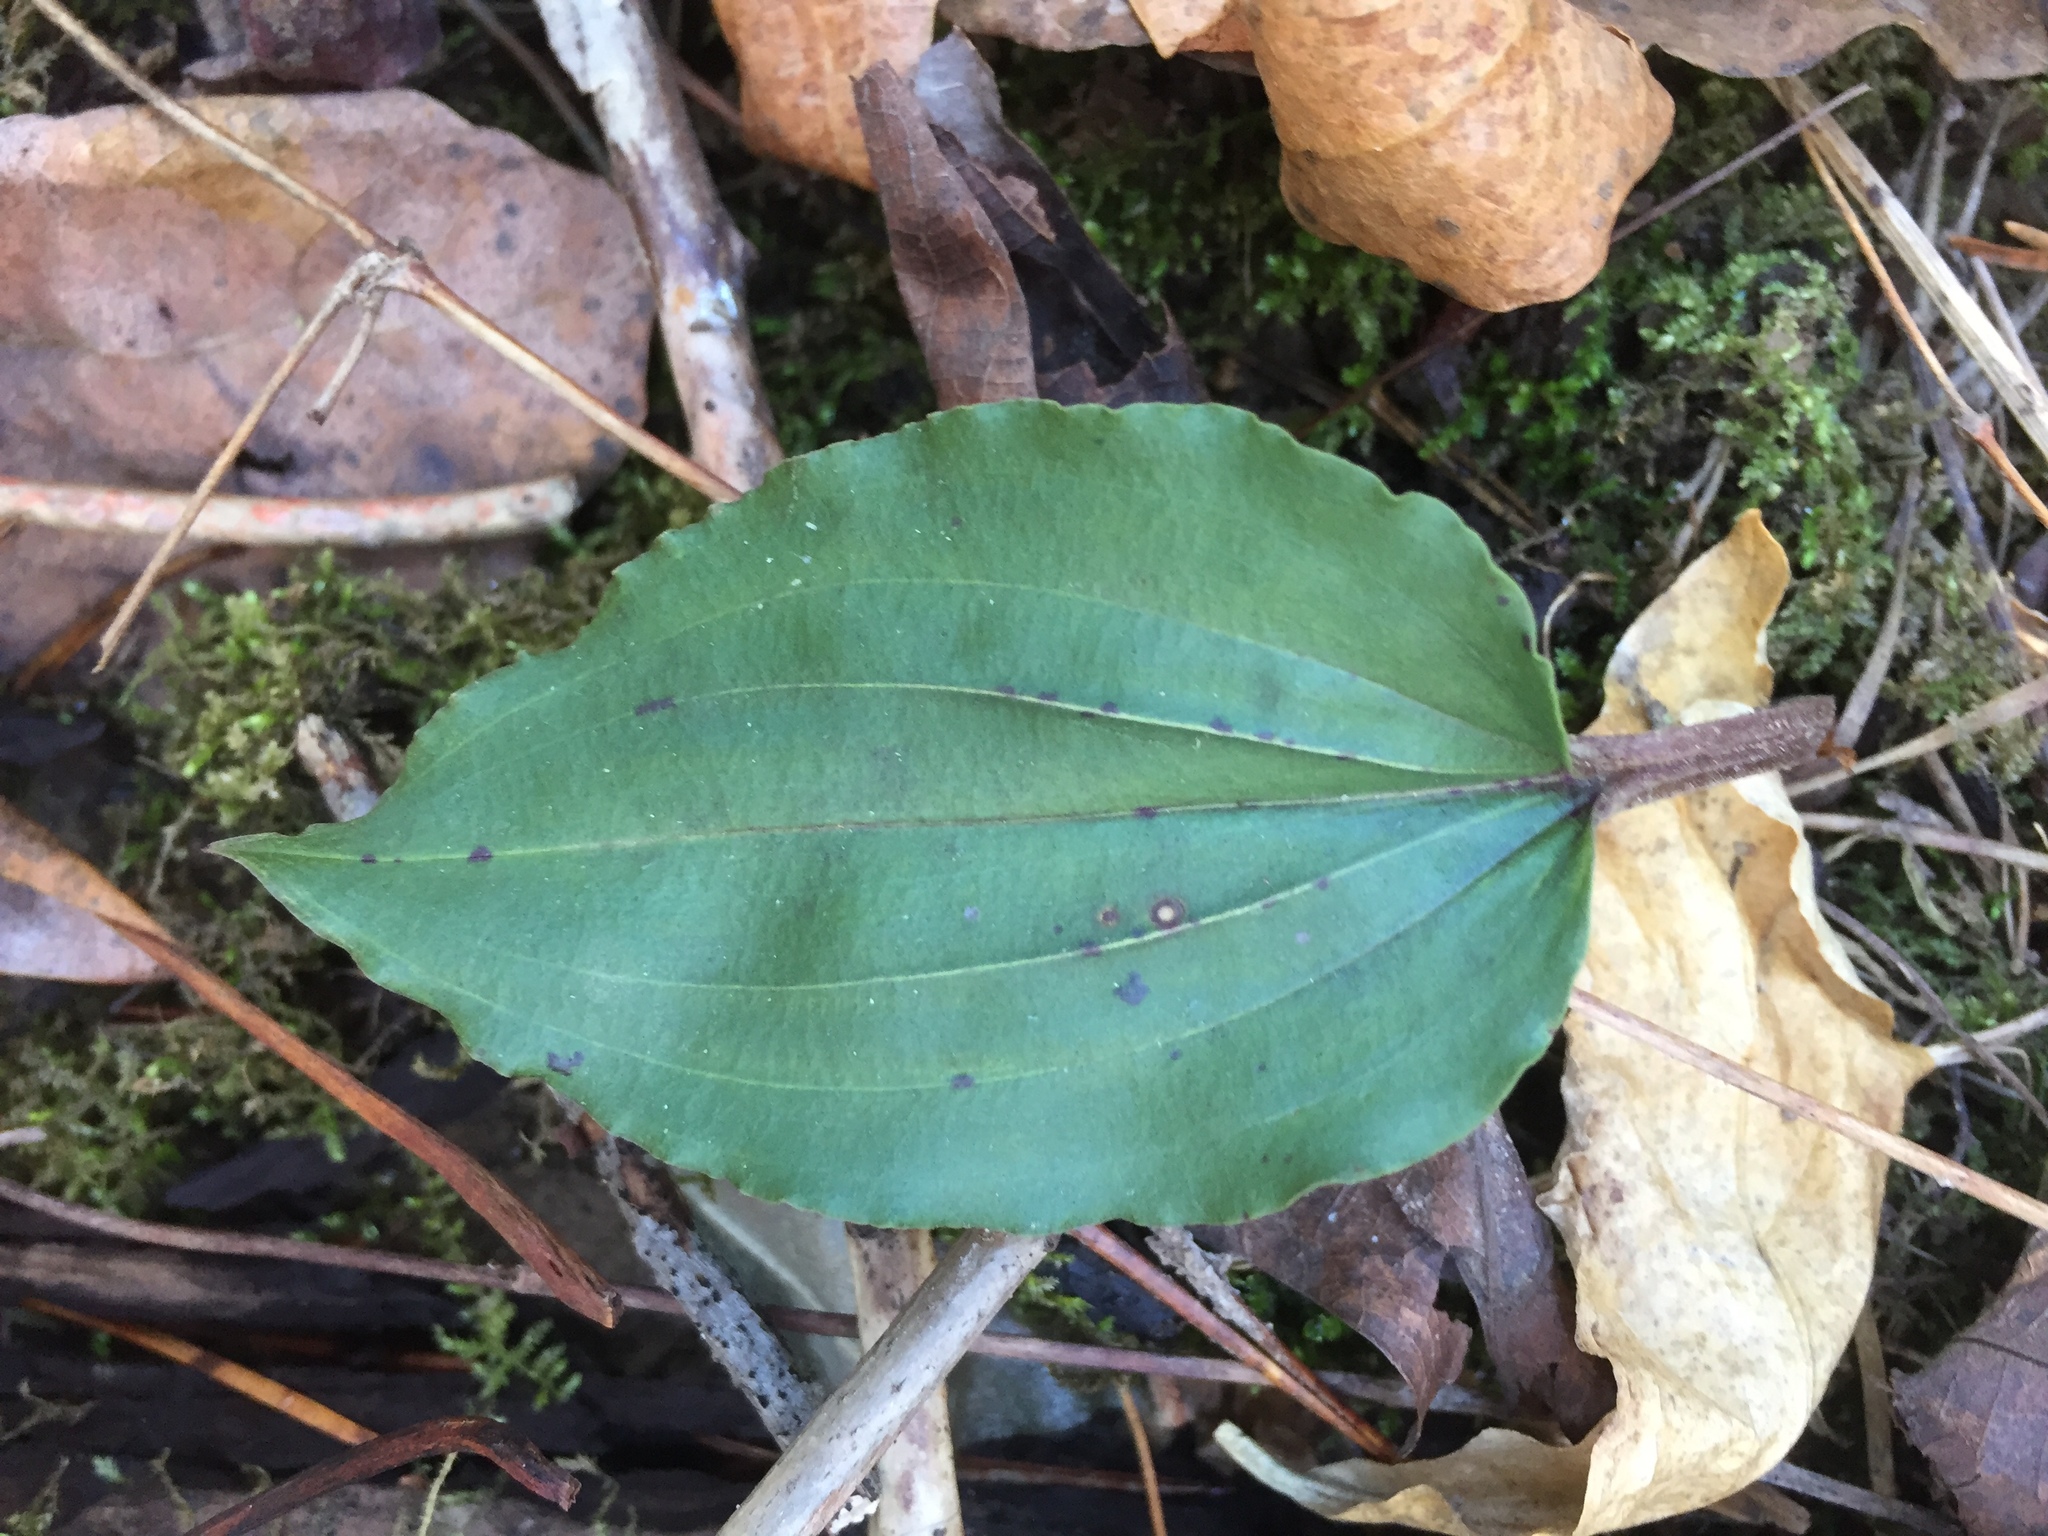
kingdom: Plantae
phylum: Tracheophyta
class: Liliopsida
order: Asparagales
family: Orchidaceae
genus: Tipularia
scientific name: Tipularia discolor
